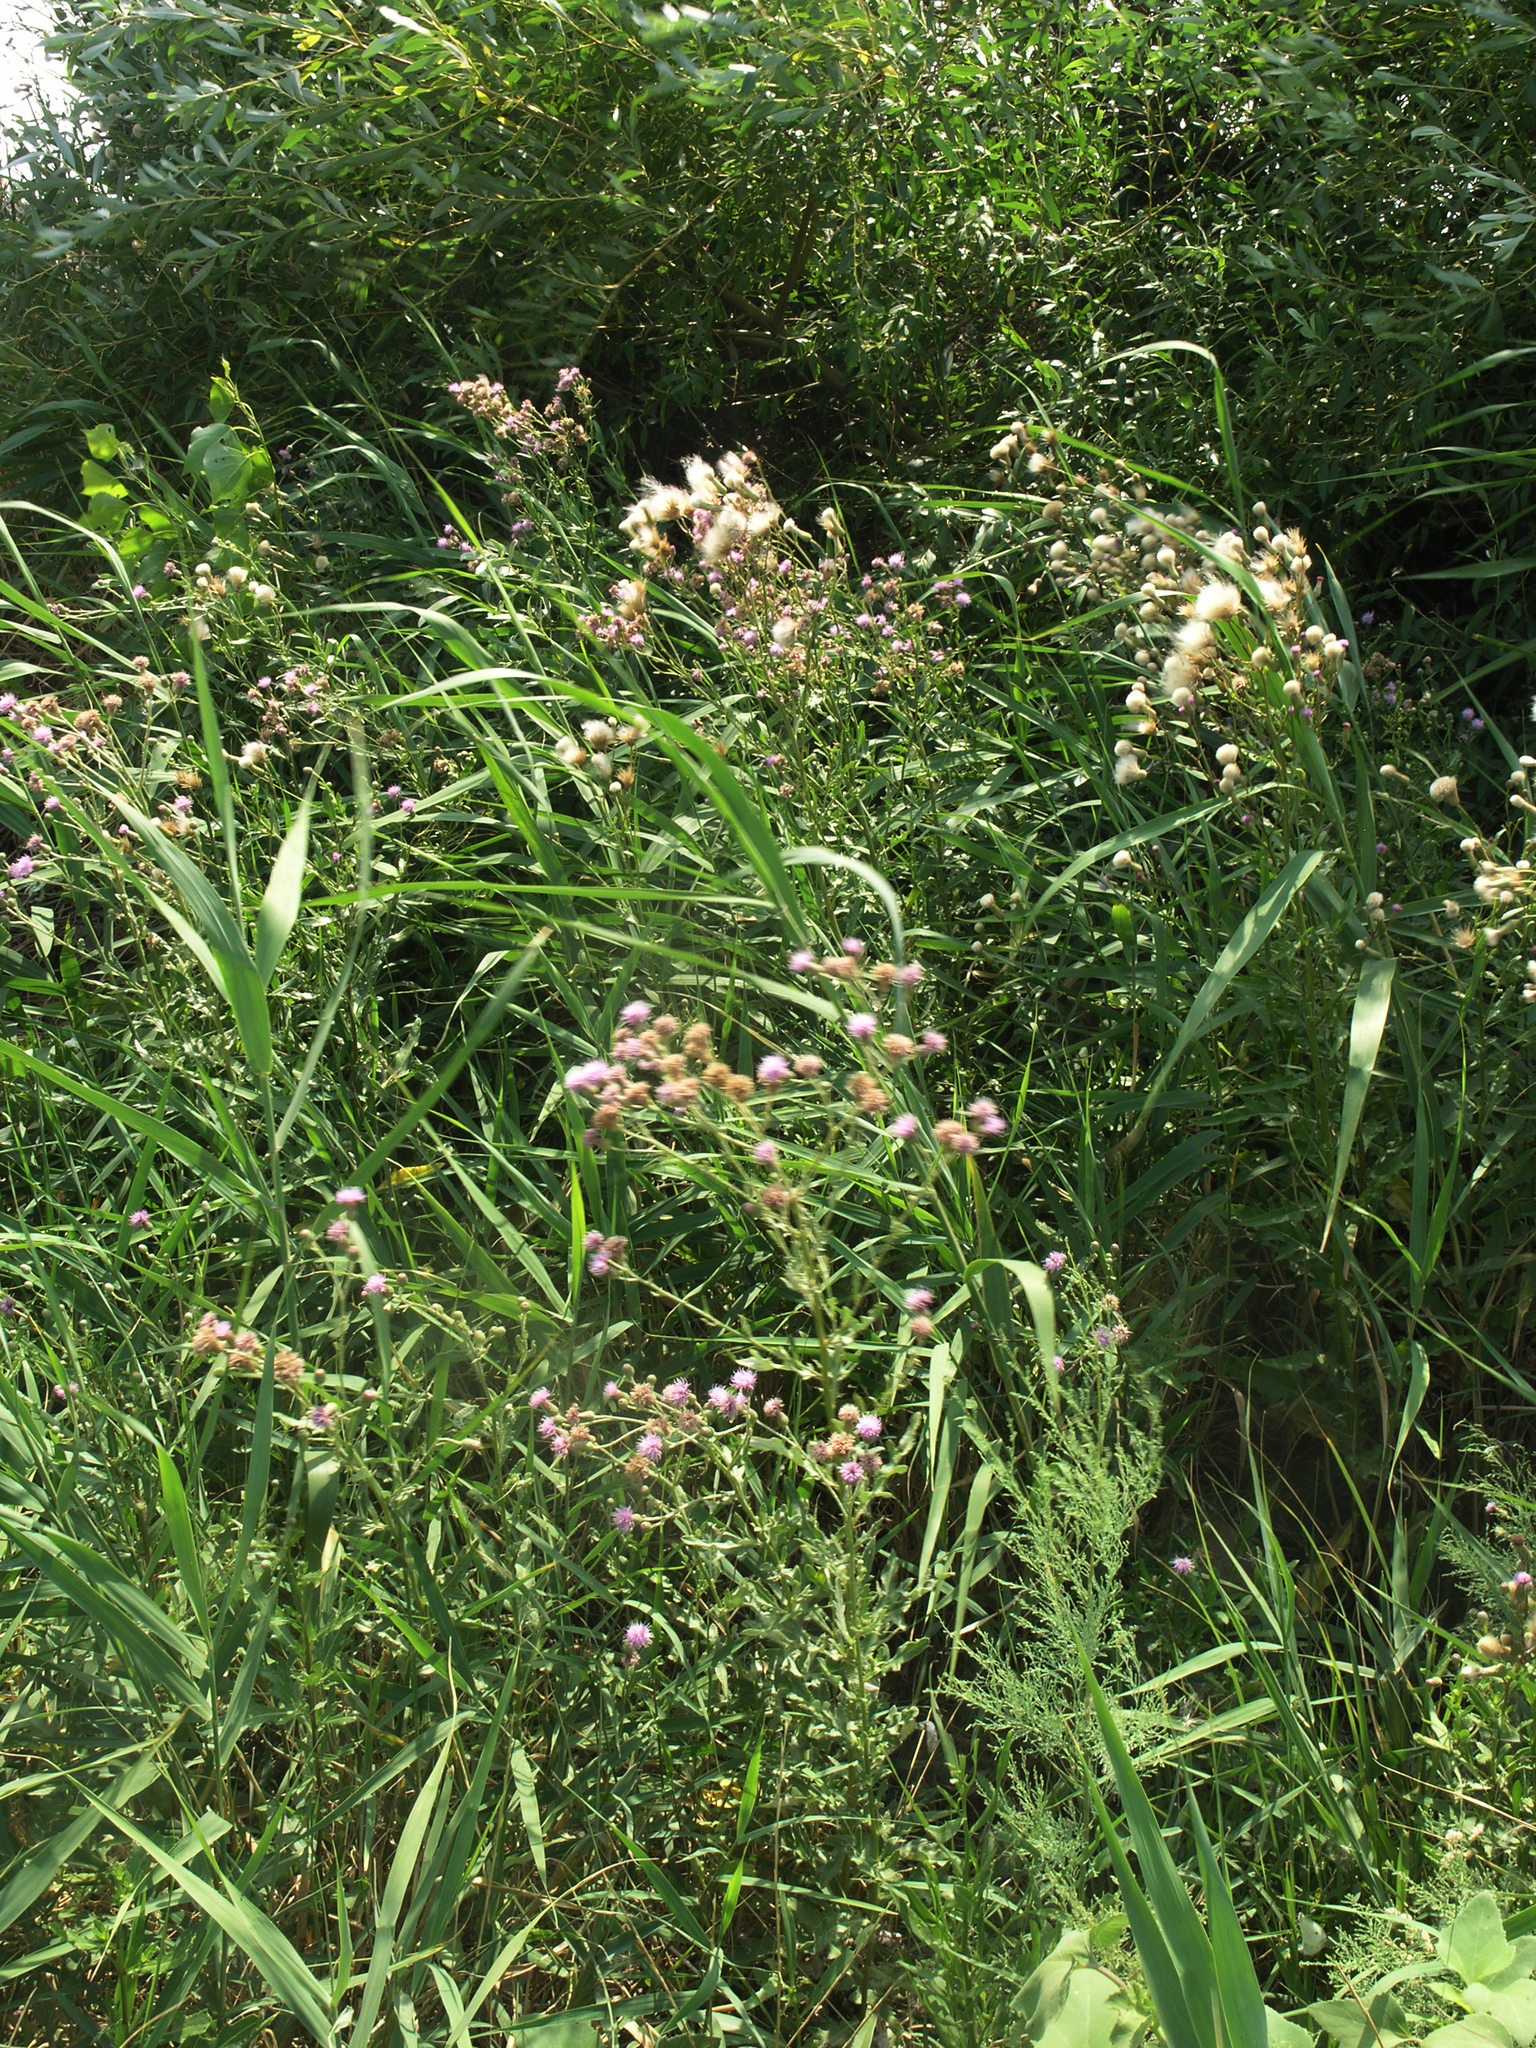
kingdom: Plantae
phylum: Tracheophyta
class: Magnoliopsida
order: Asterales
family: Asteraceae
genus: Cirsium
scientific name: Cirsium arvense
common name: Creeping thistle
